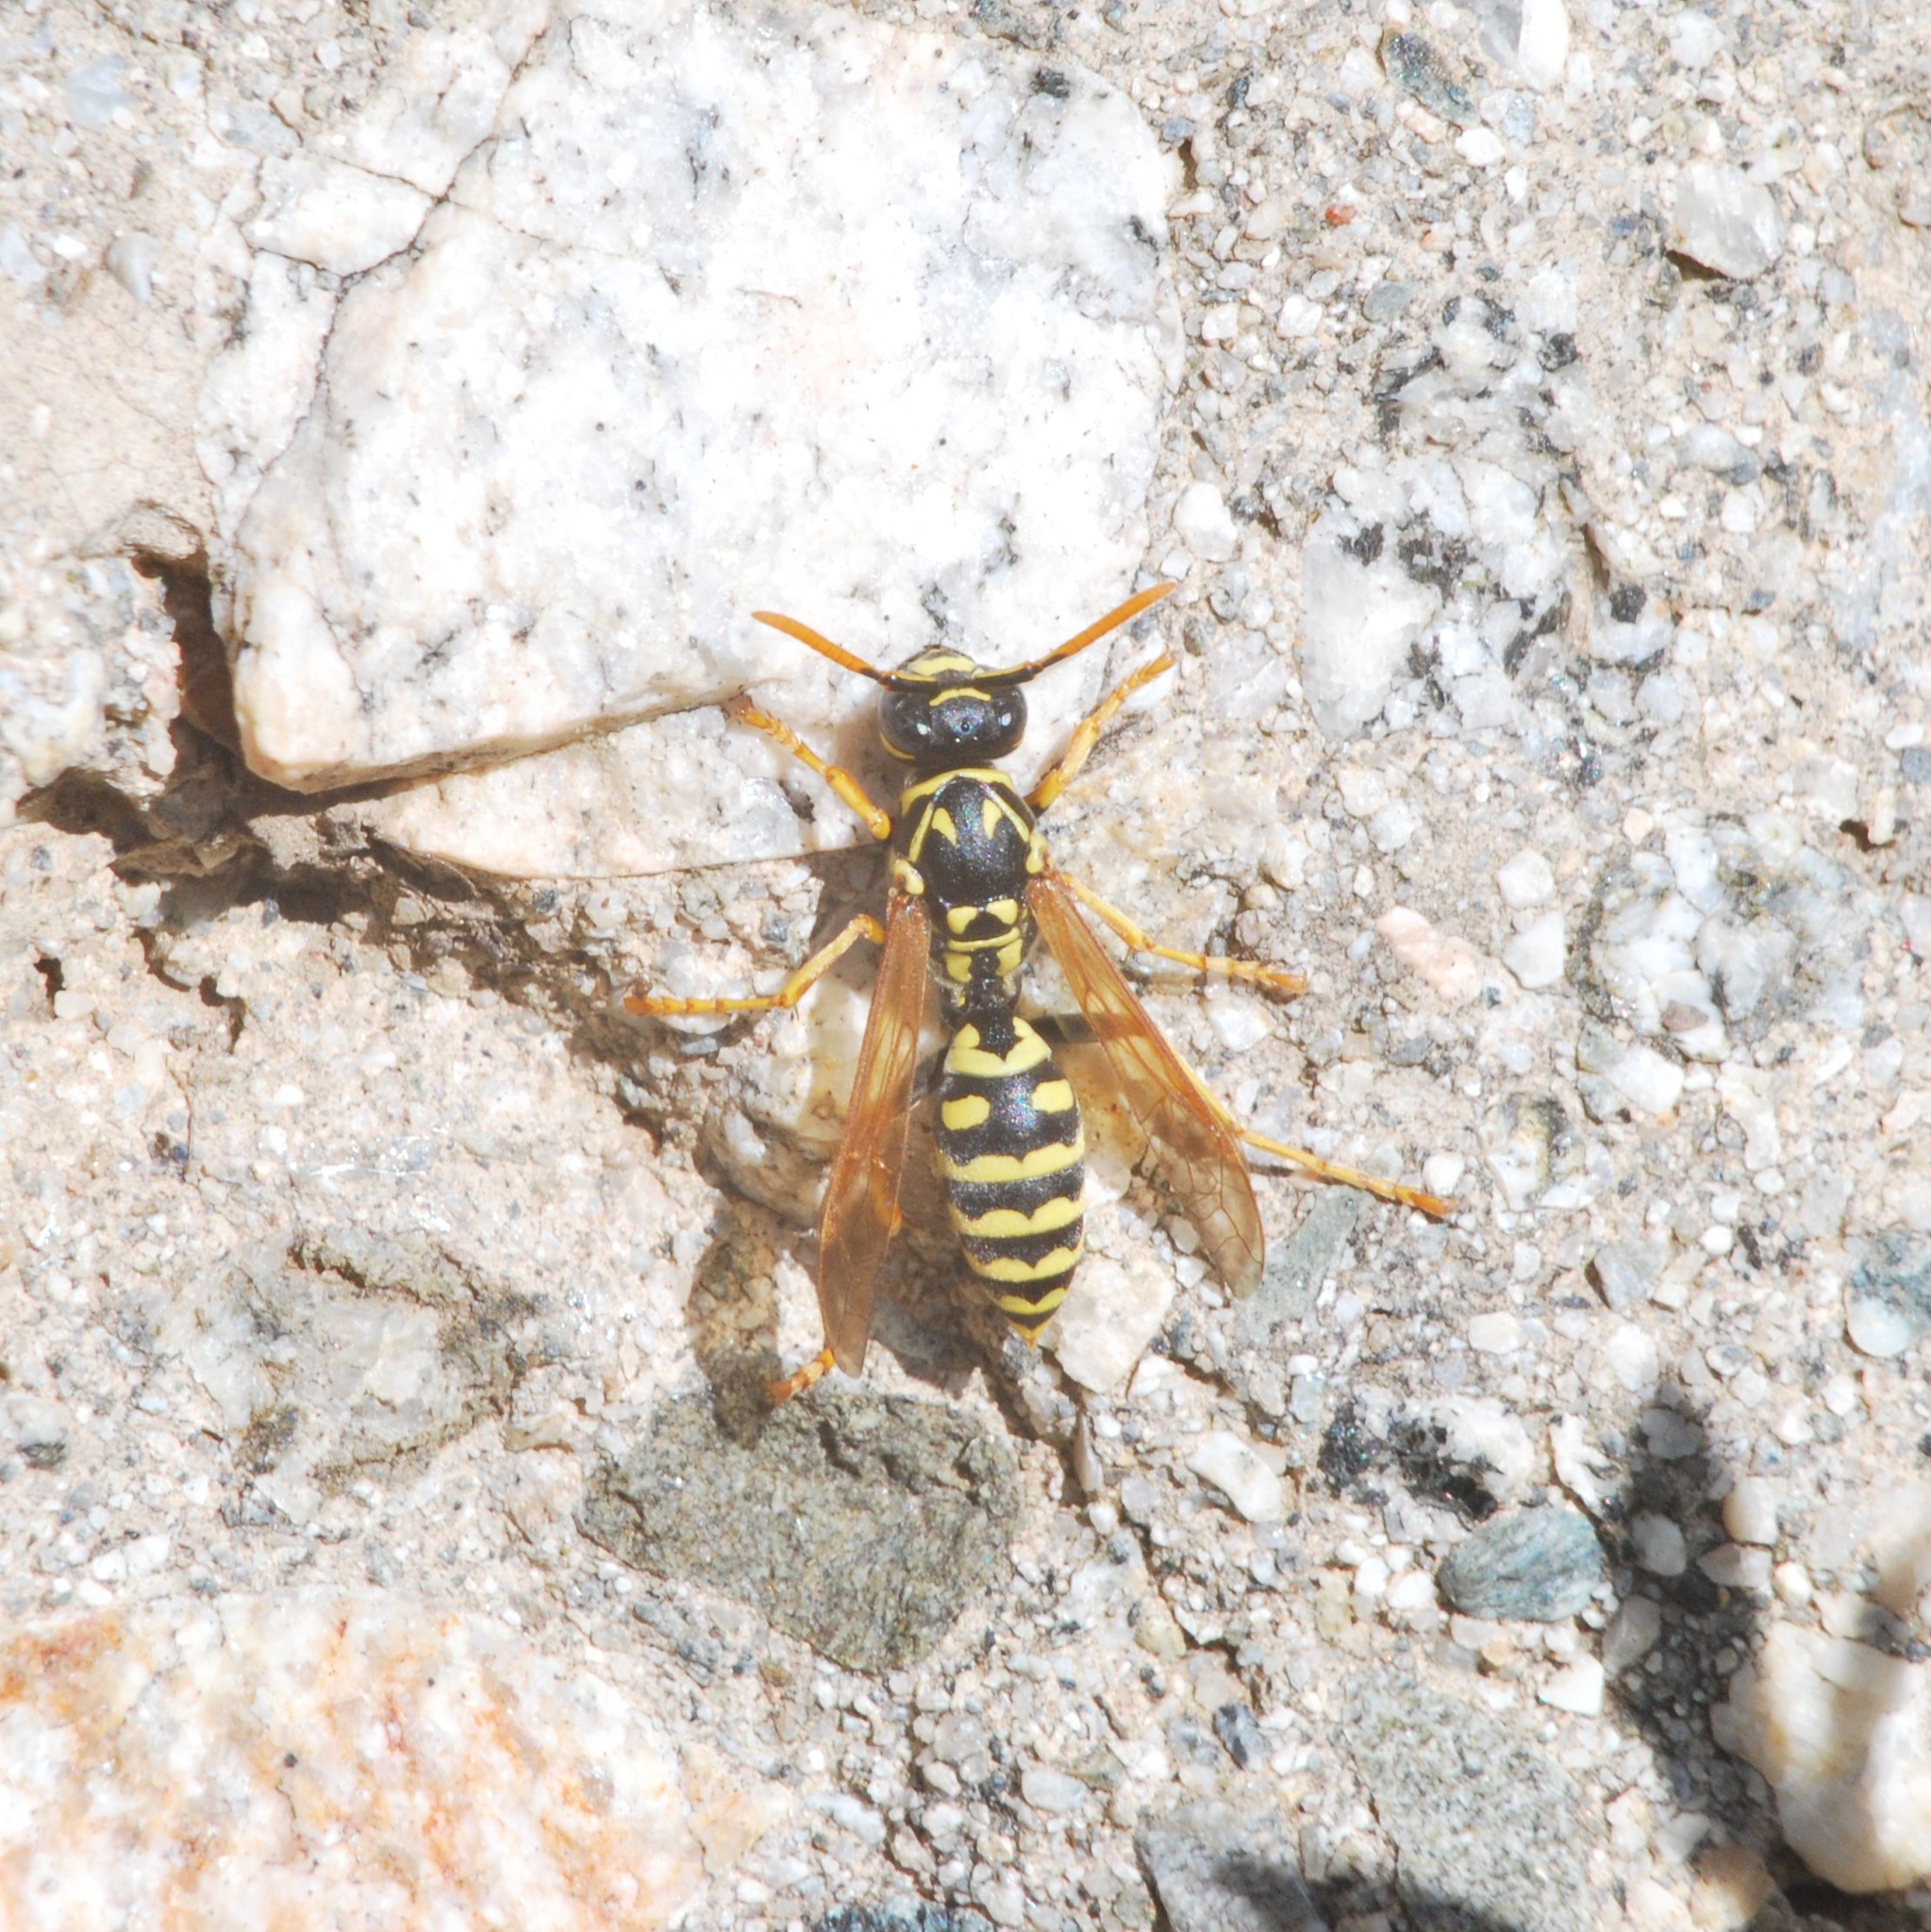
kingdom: Animalia
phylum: Arthropoda
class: Insecta
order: Hymenoptera
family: Eumenidae
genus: Polistes
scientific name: Polistes dominula
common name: Paper wasp
